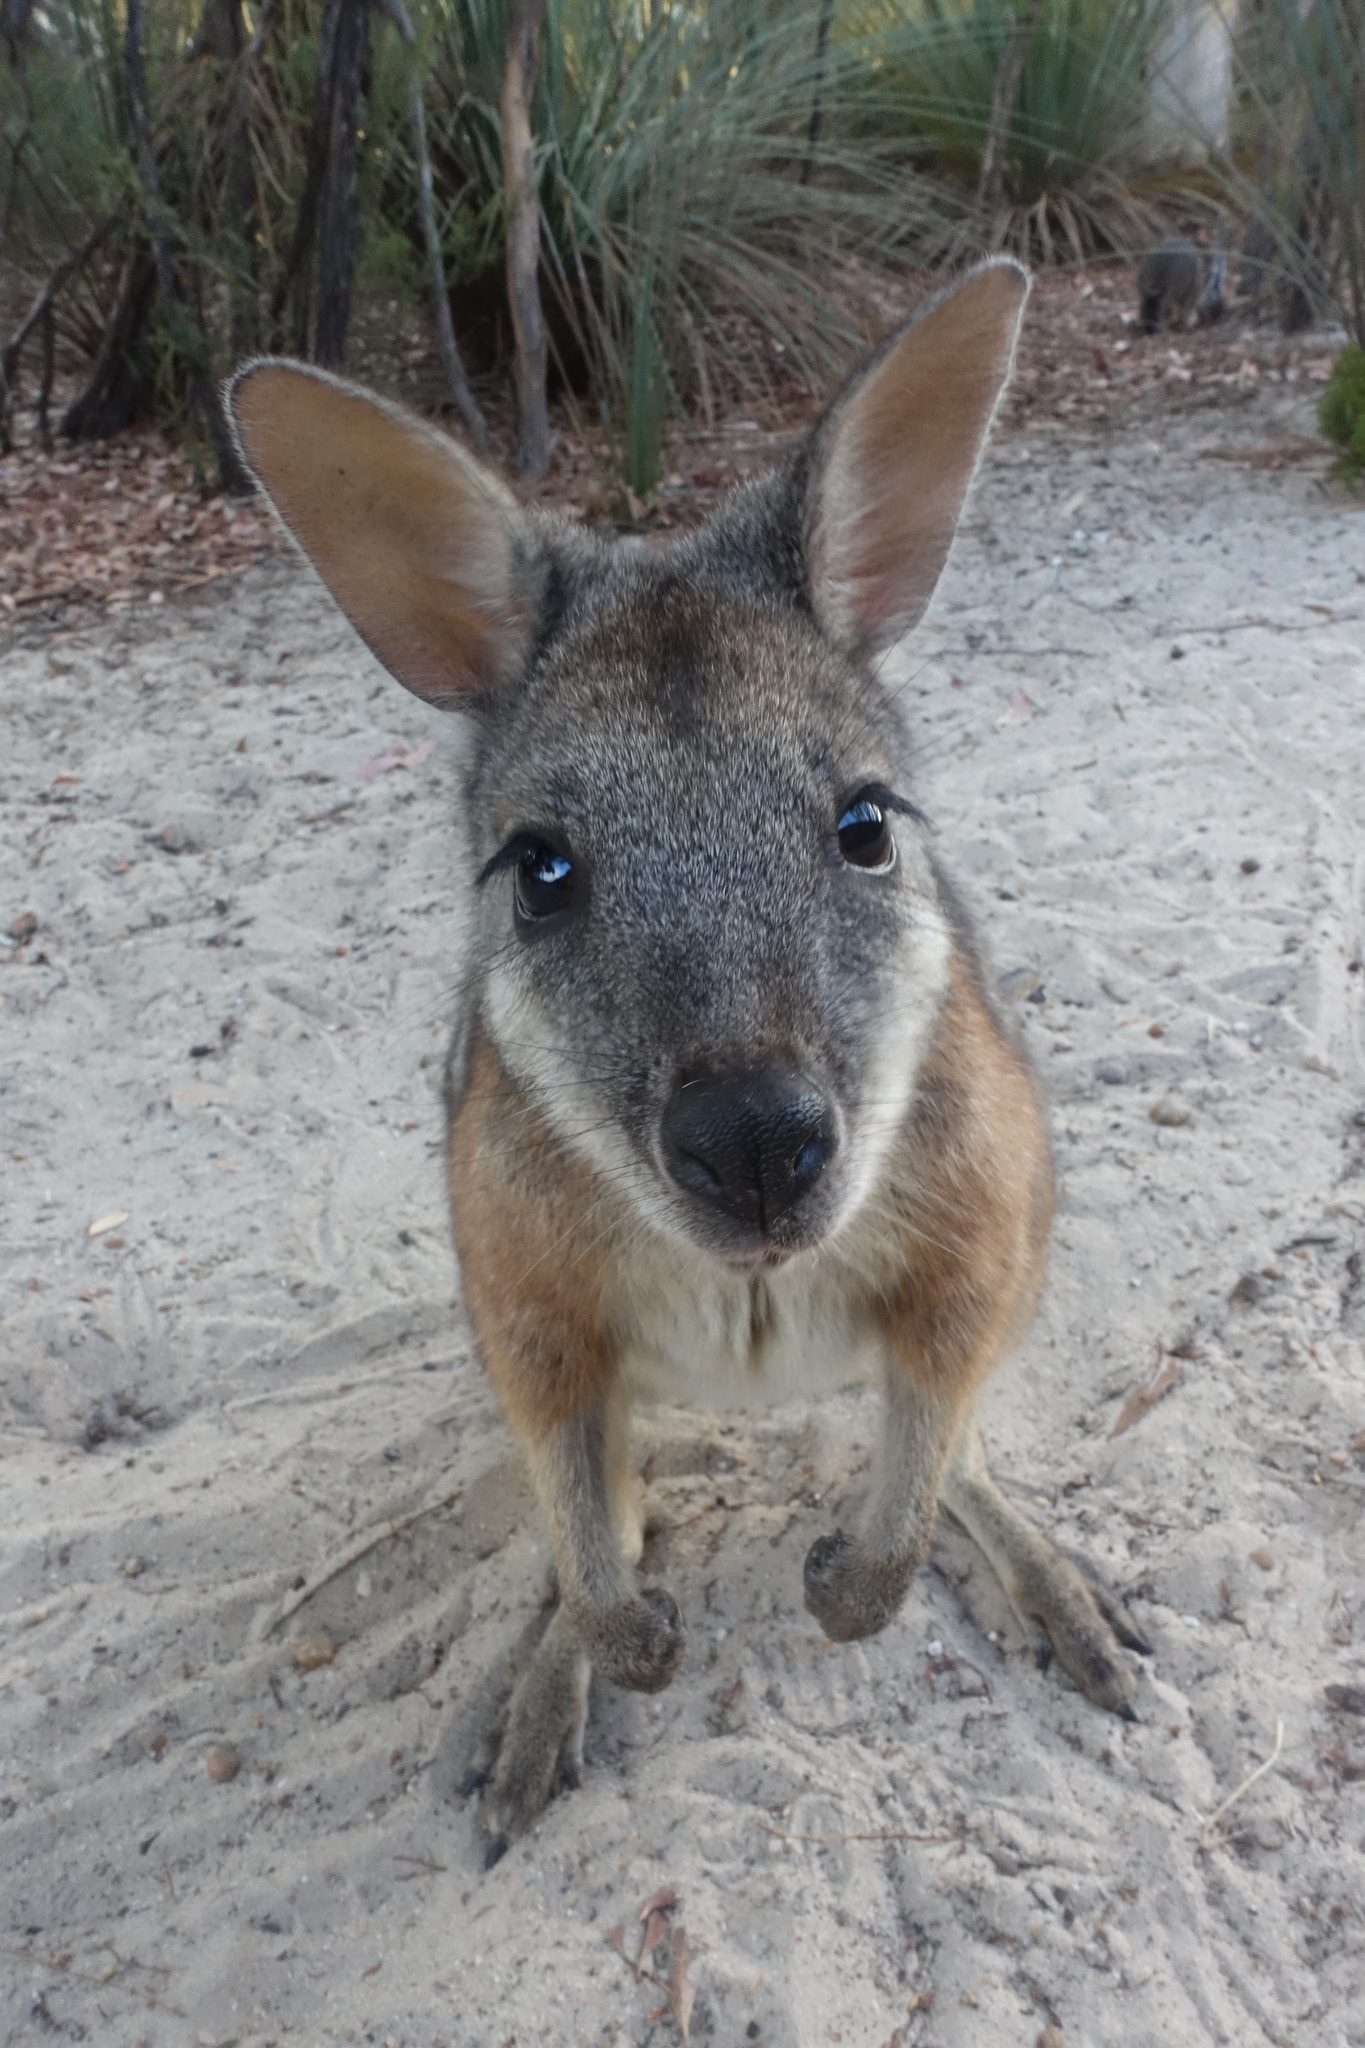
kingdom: Animalia
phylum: Chordata
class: Mammalia
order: Diprotodontia
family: Macropodidae
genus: Macropus
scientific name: Macropus eugenii
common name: Tammar wallaby
